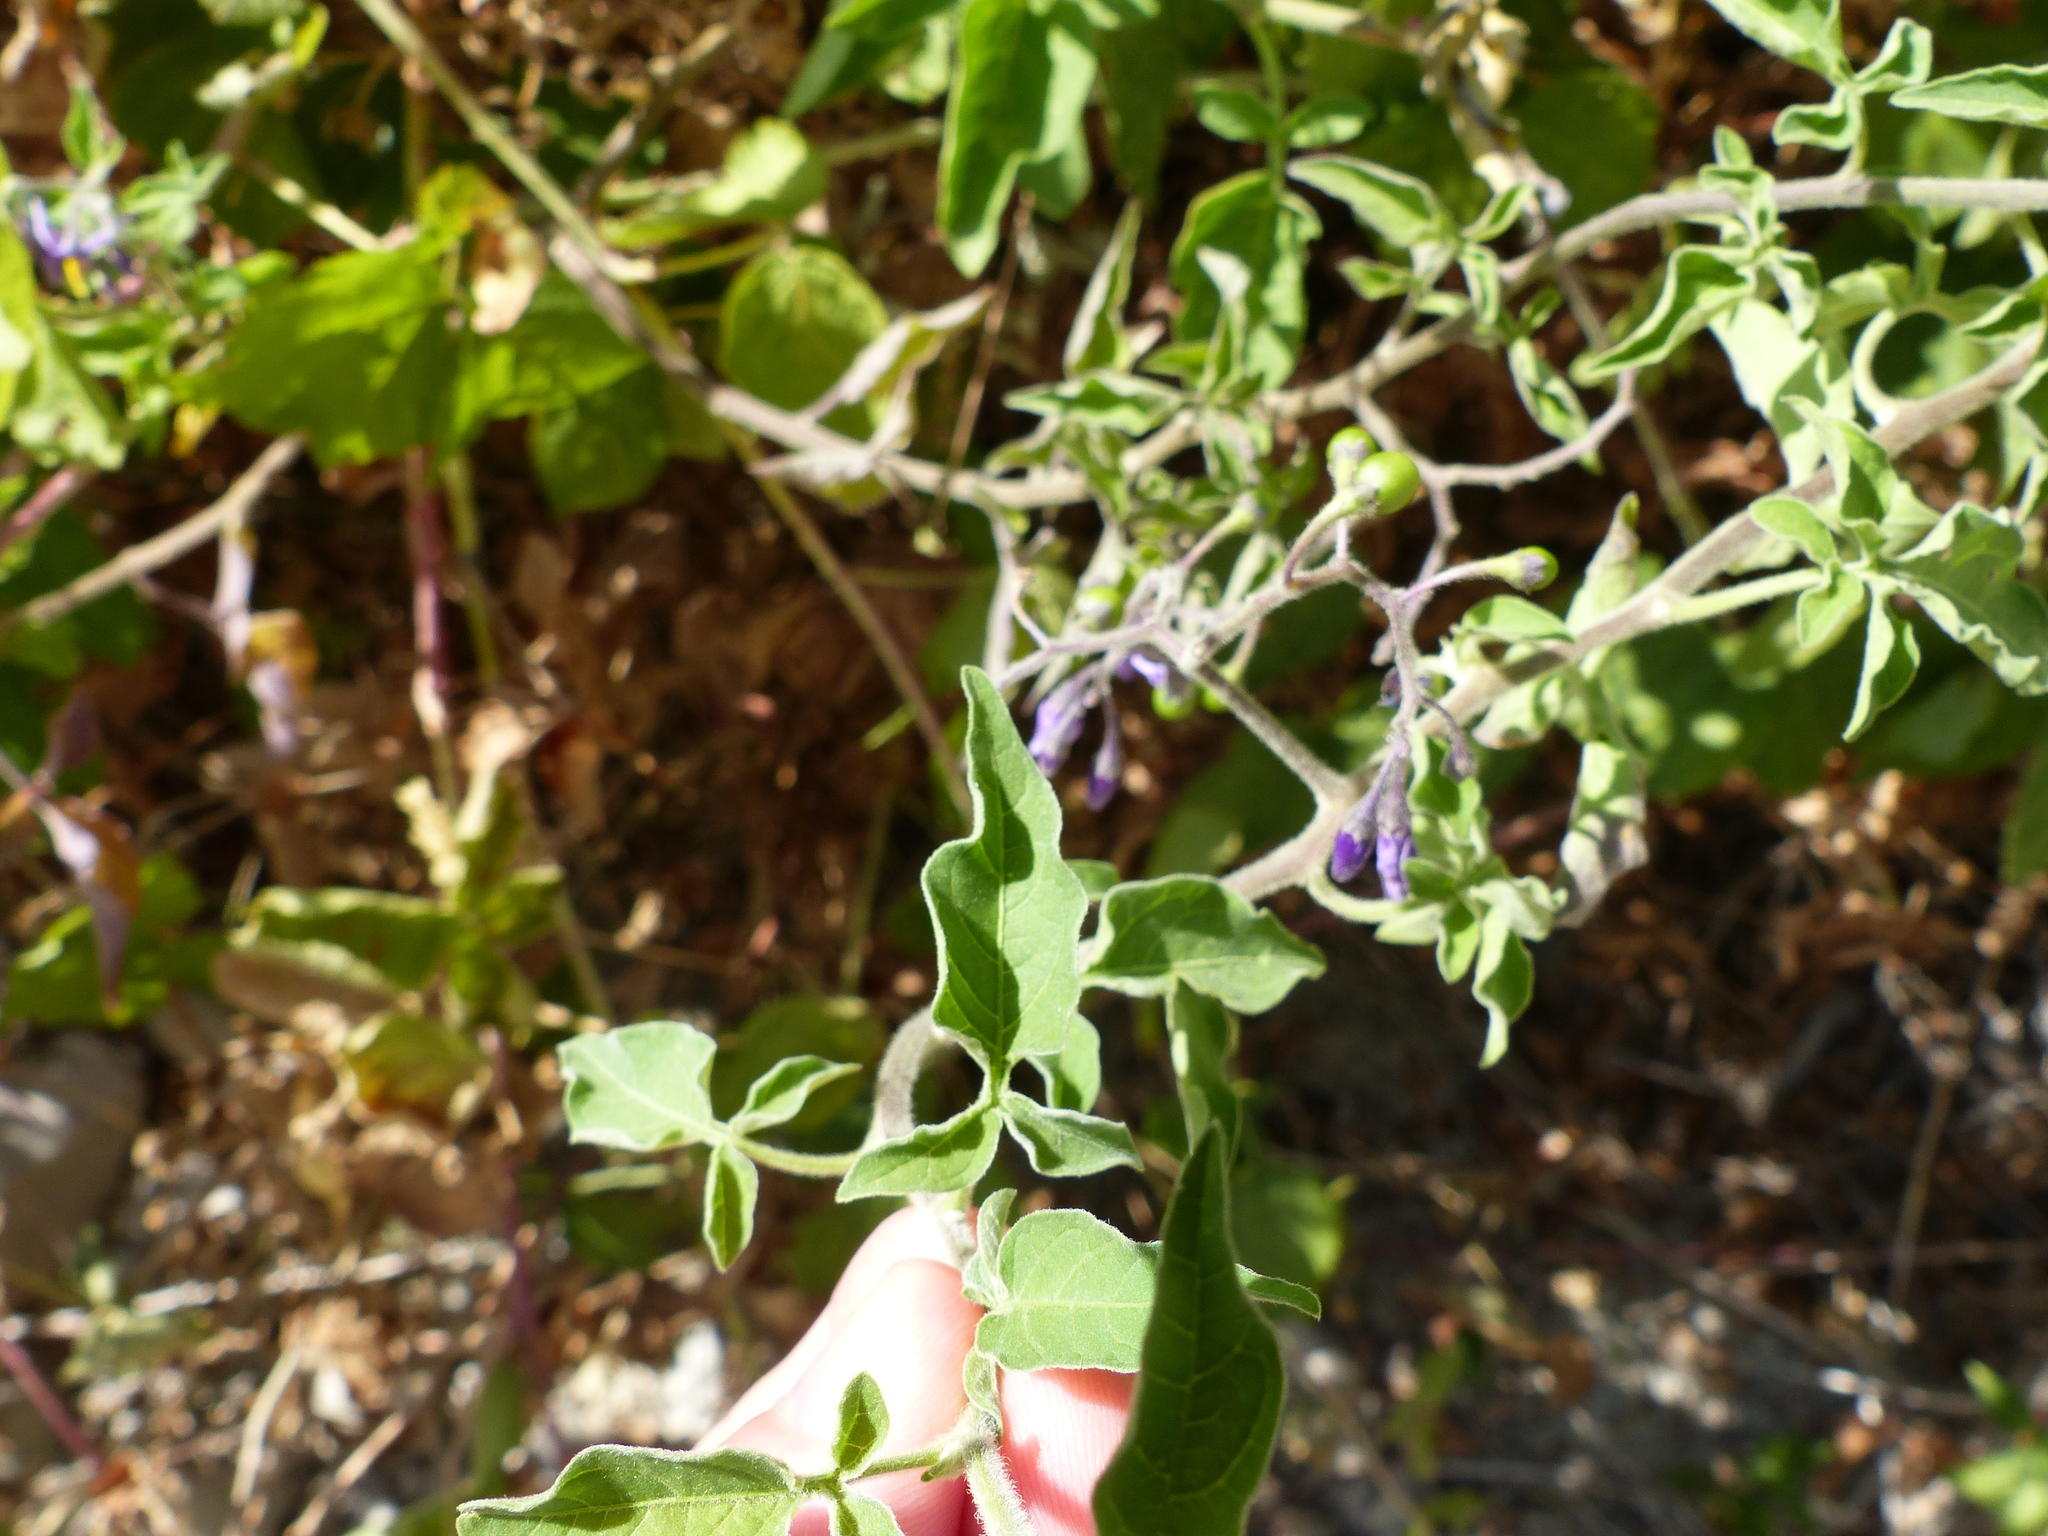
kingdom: Plantae
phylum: Tracheophyta
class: Magnoliopsida
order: Solanales
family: Solanaceae
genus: Solanum
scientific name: Solanum dulcamara
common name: Climbing nightshade
